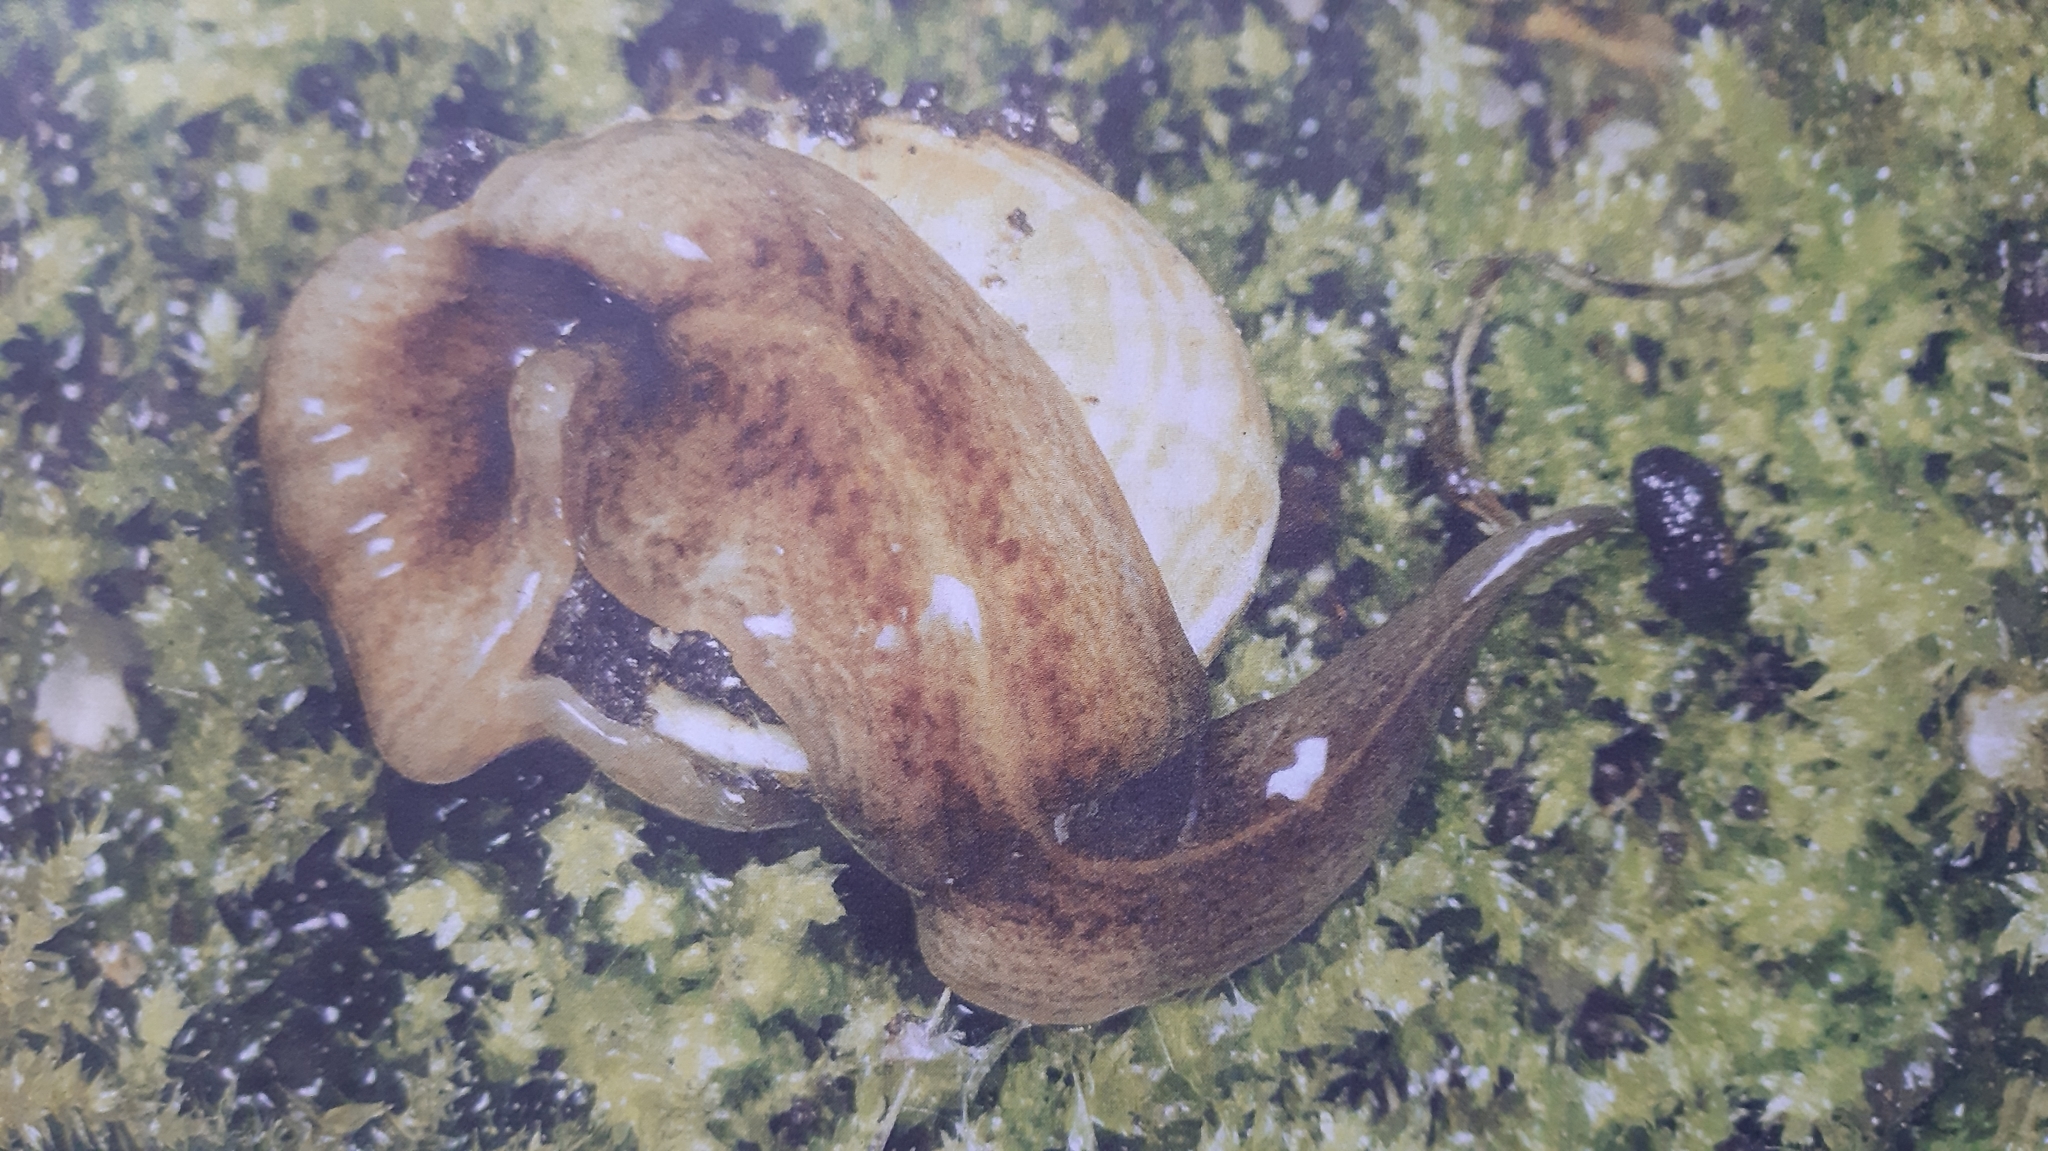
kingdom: Animalia
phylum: Platyhelminthes
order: Tricladida
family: Geoplanidae
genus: Obama
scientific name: Obama nungara
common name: Obama flatworm
